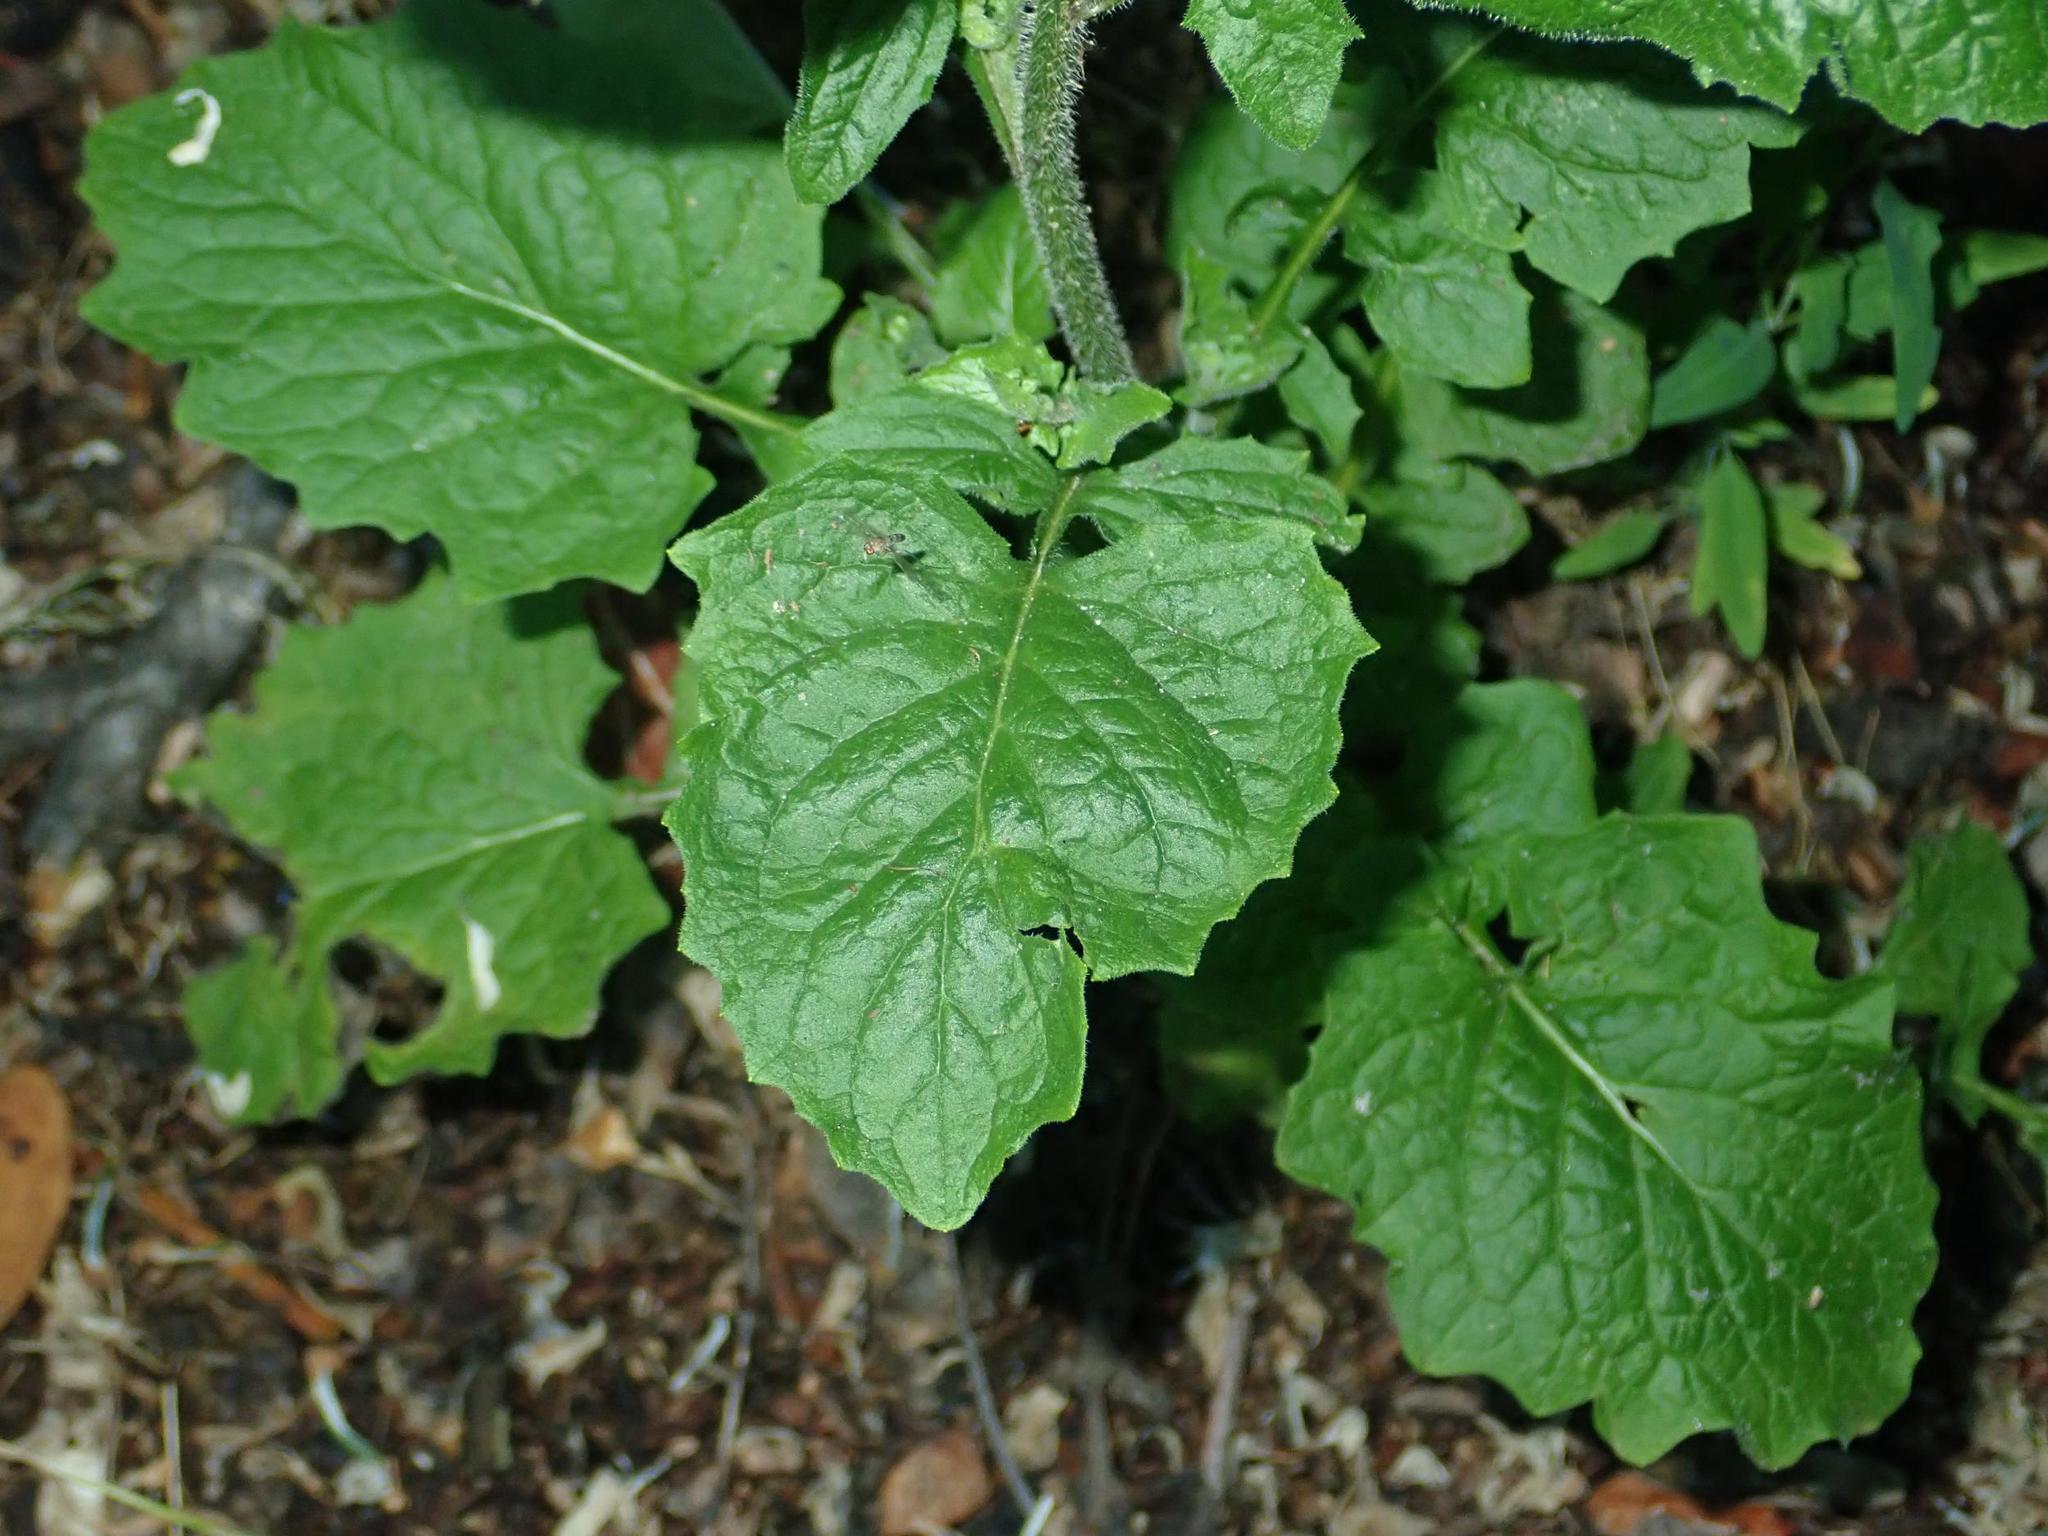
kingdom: Plantae
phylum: Tracheophyta
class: Magnoliopsida
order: Asterales
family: Asteraceae
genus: Lapsana
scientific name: Lapsana communis
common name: Nipplewort
